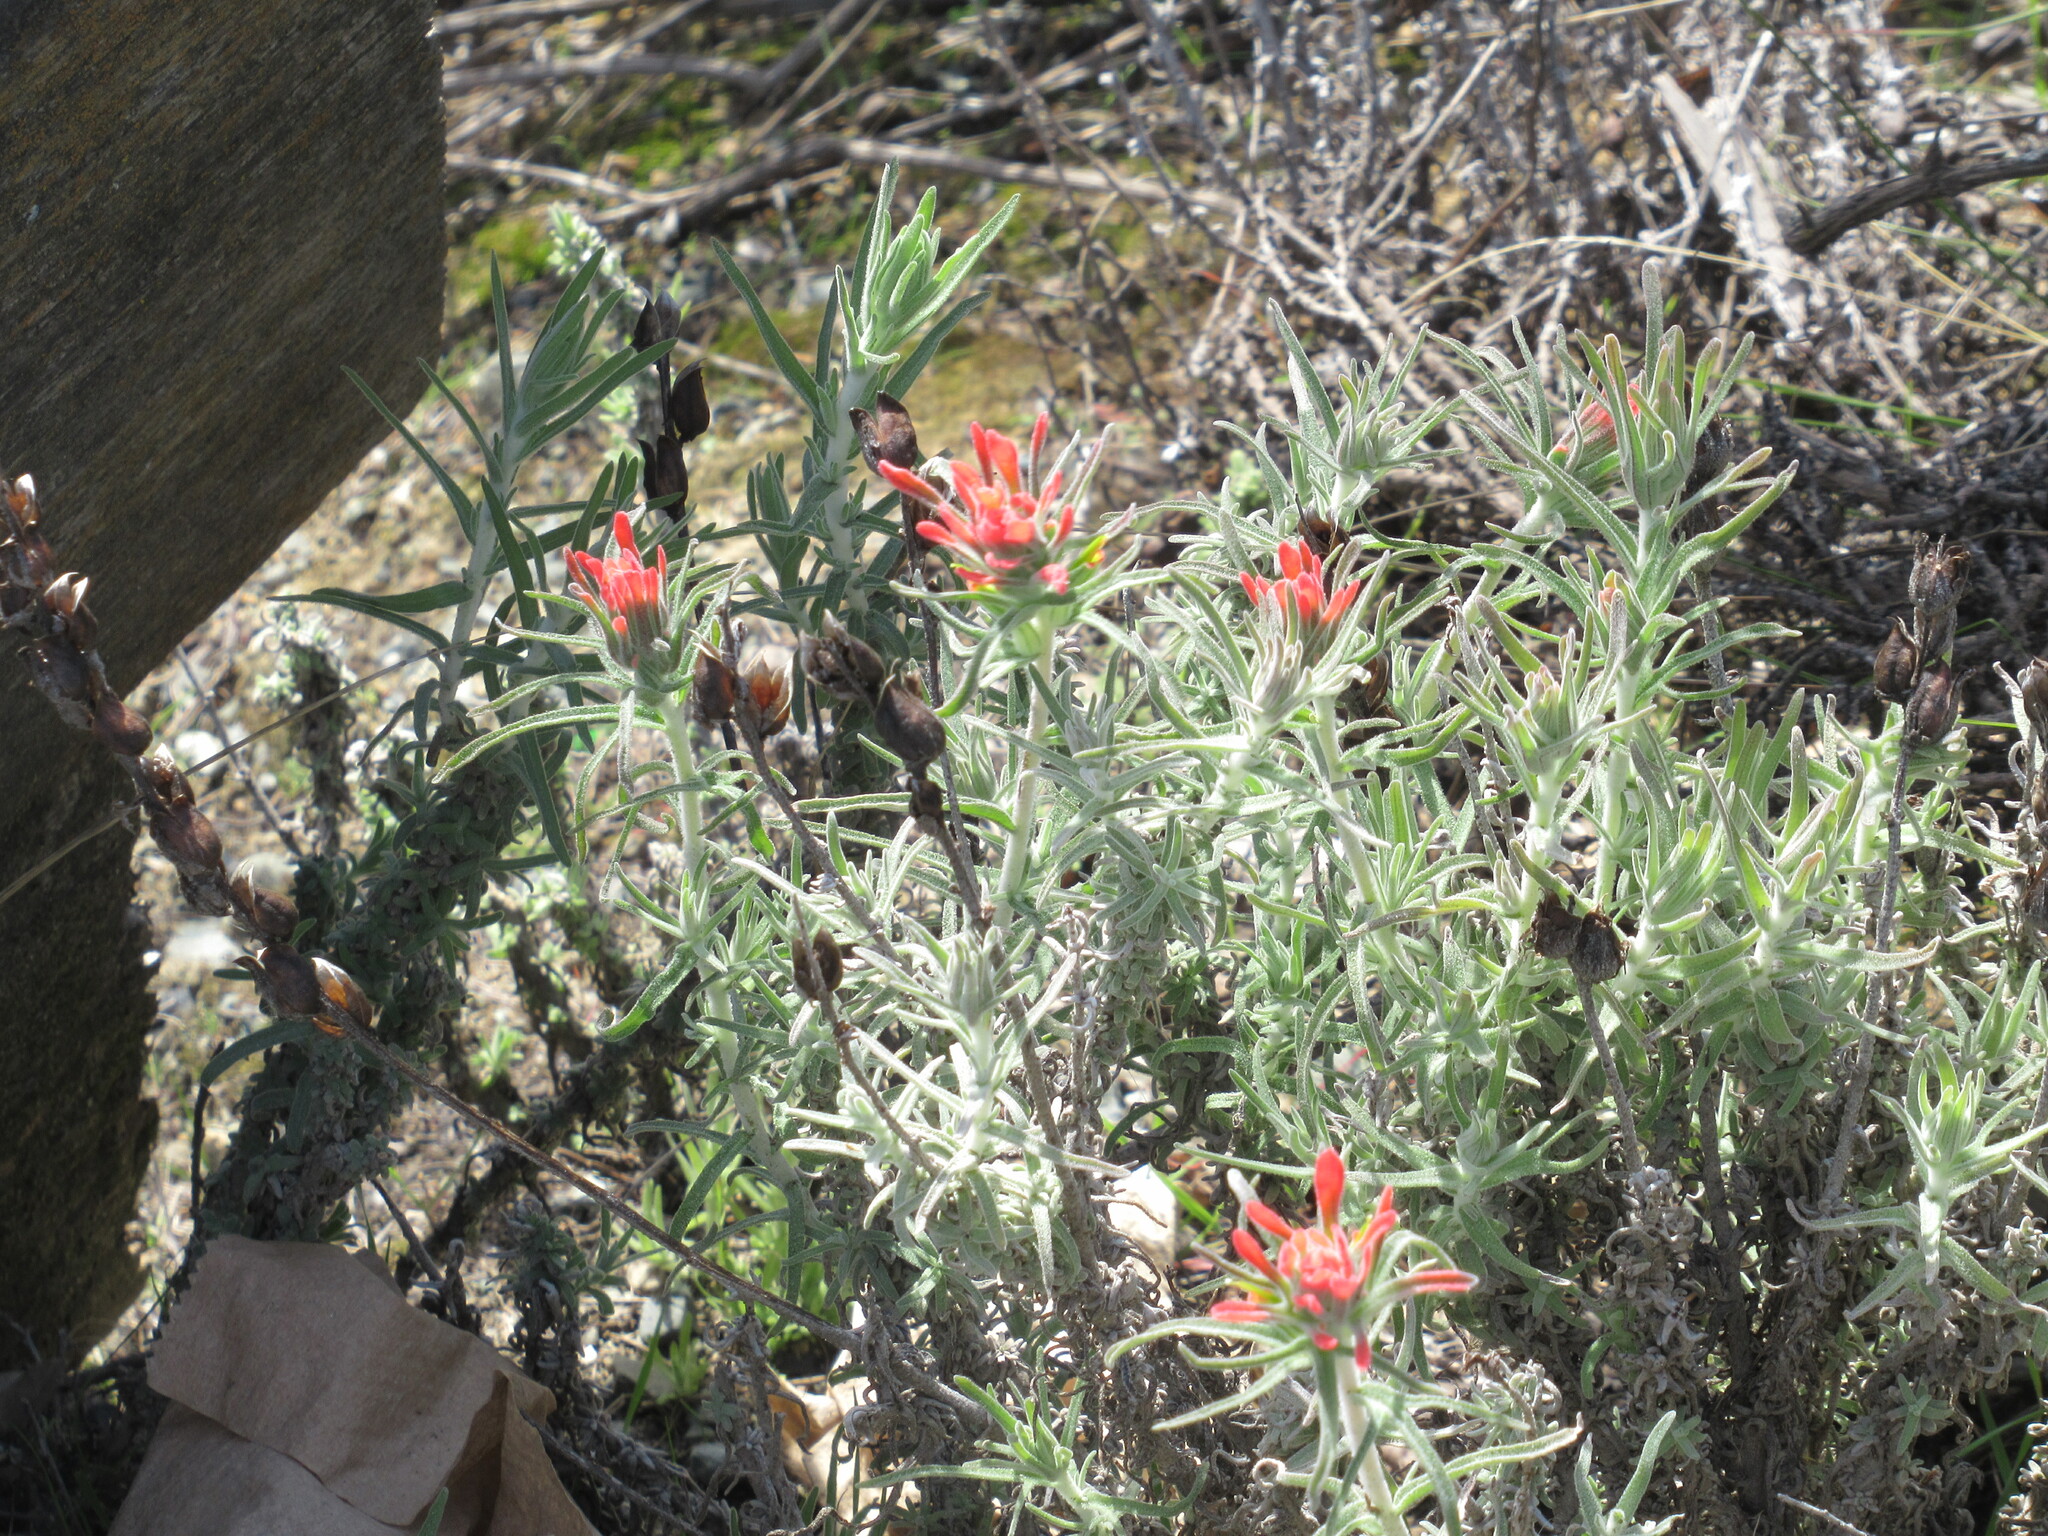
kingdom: Plantae
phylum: Tracheophyta
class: Magnoliopsida
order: Lamiales
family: Orobanchaceae
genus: Castilleja
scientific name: Castilleja foliolosa
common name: Woolly indian paintbrush
